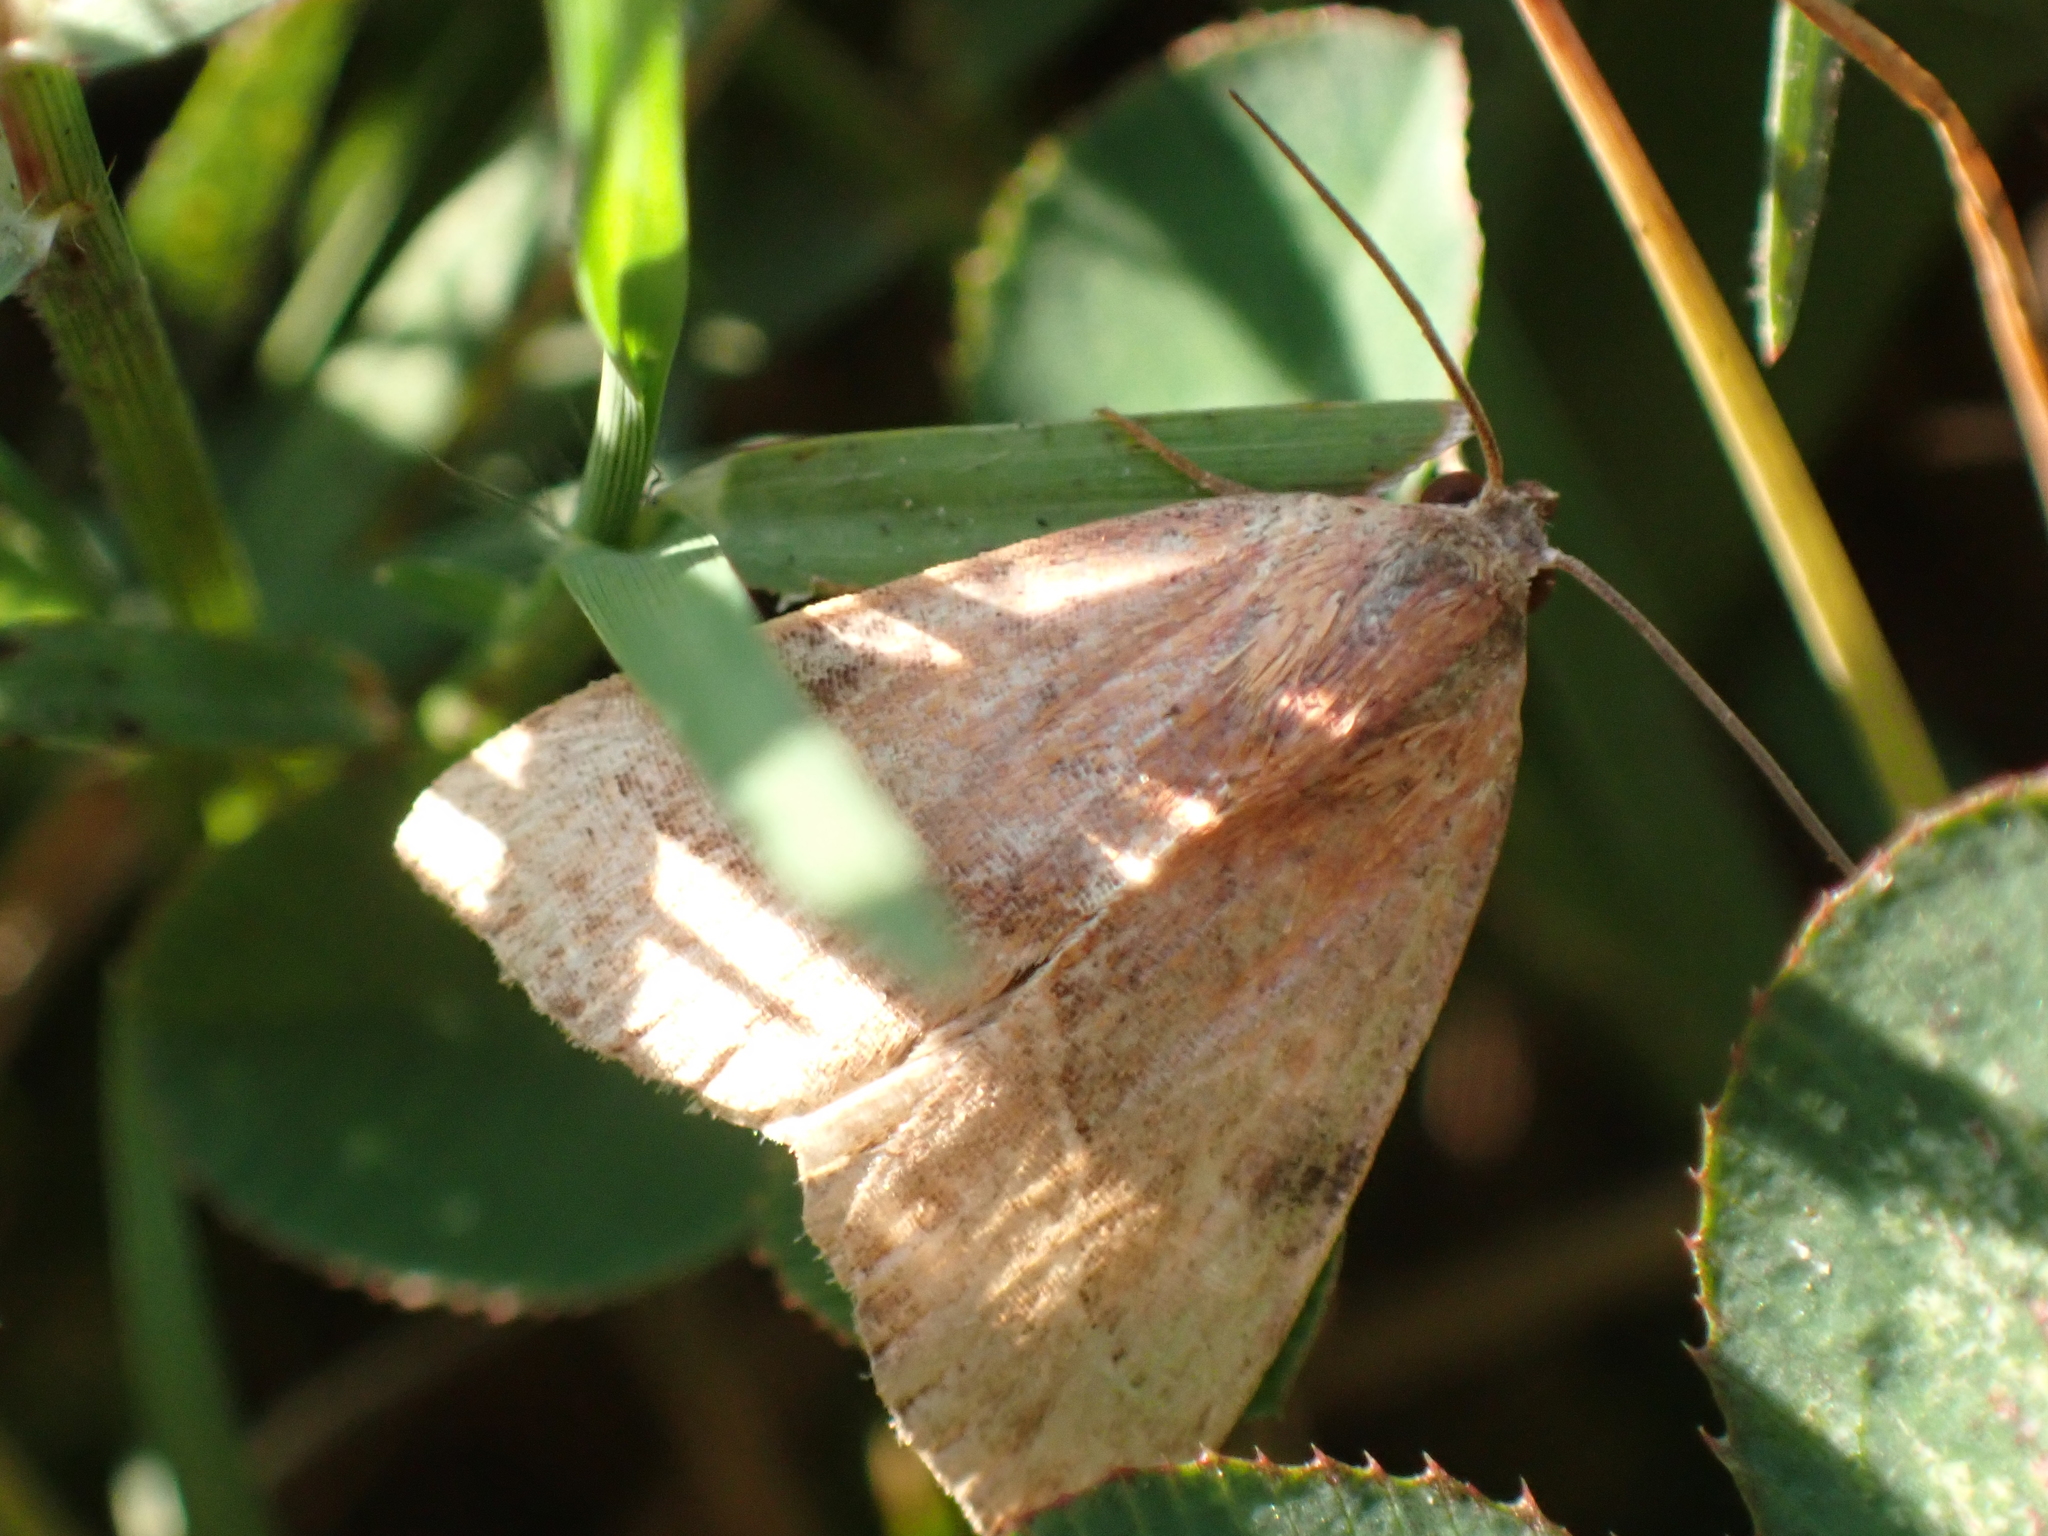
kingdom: Animalia
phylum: Arthropoda
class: Insecta
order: Lepidoptera
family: Noctuidae
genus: Galgula
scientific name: Galgula partita
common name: Wedgeling
